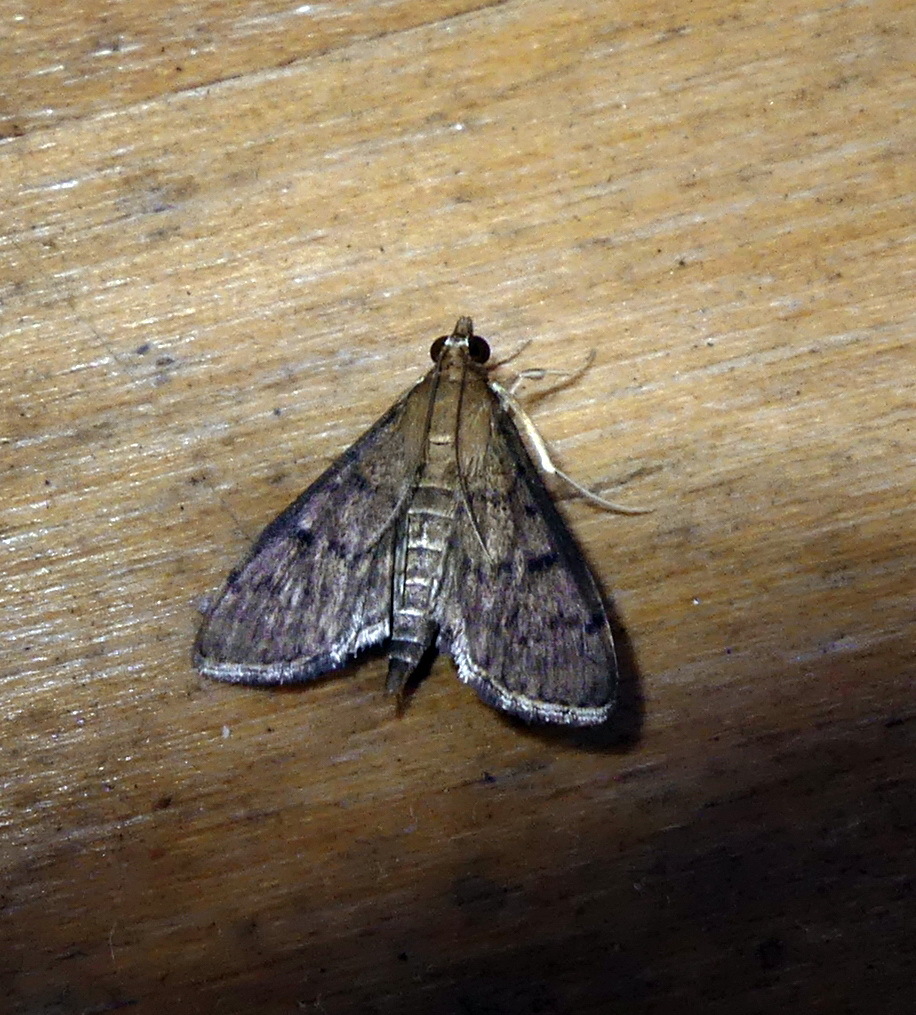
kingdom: Animalia
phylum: Arthropoda
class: Insecta
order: Lepidoptera
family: Crambidae
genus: Herpetogramma
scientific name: Herpetogramma phaeopteralis
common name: Dusky herpetogramma moth
